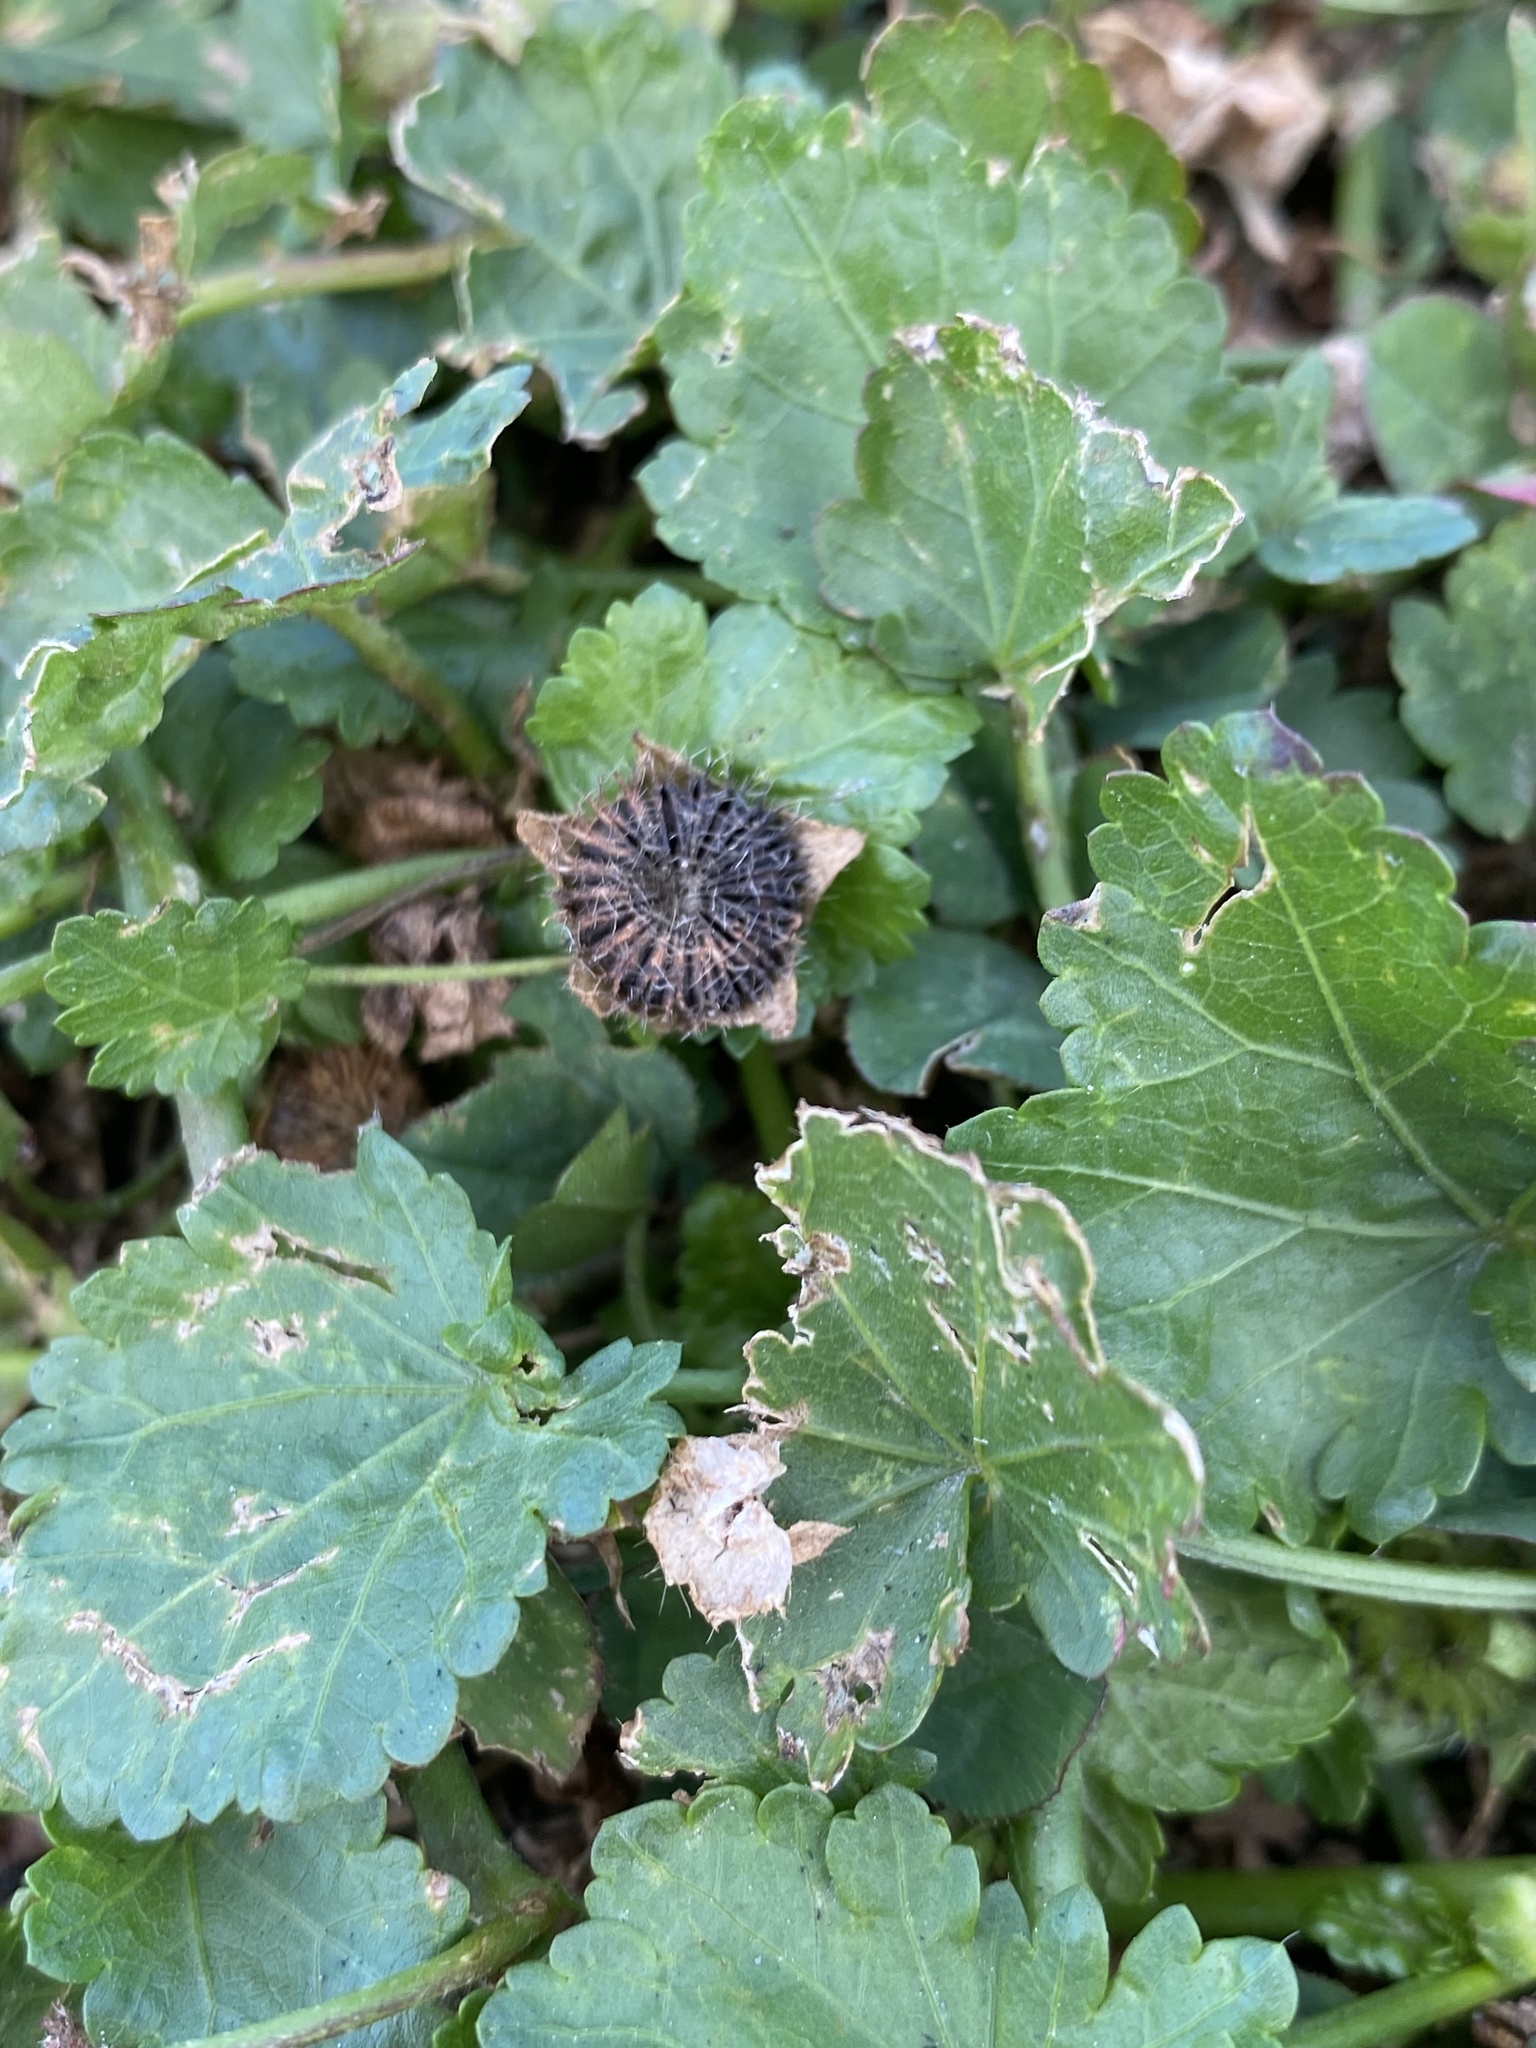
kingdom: Plantae
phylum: Tracheophyta
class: Magnoliopsida
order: Malvales
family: Malvaceae
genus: Modiola
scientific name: Modiola caroliniana
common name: Carolina bristlemallow
